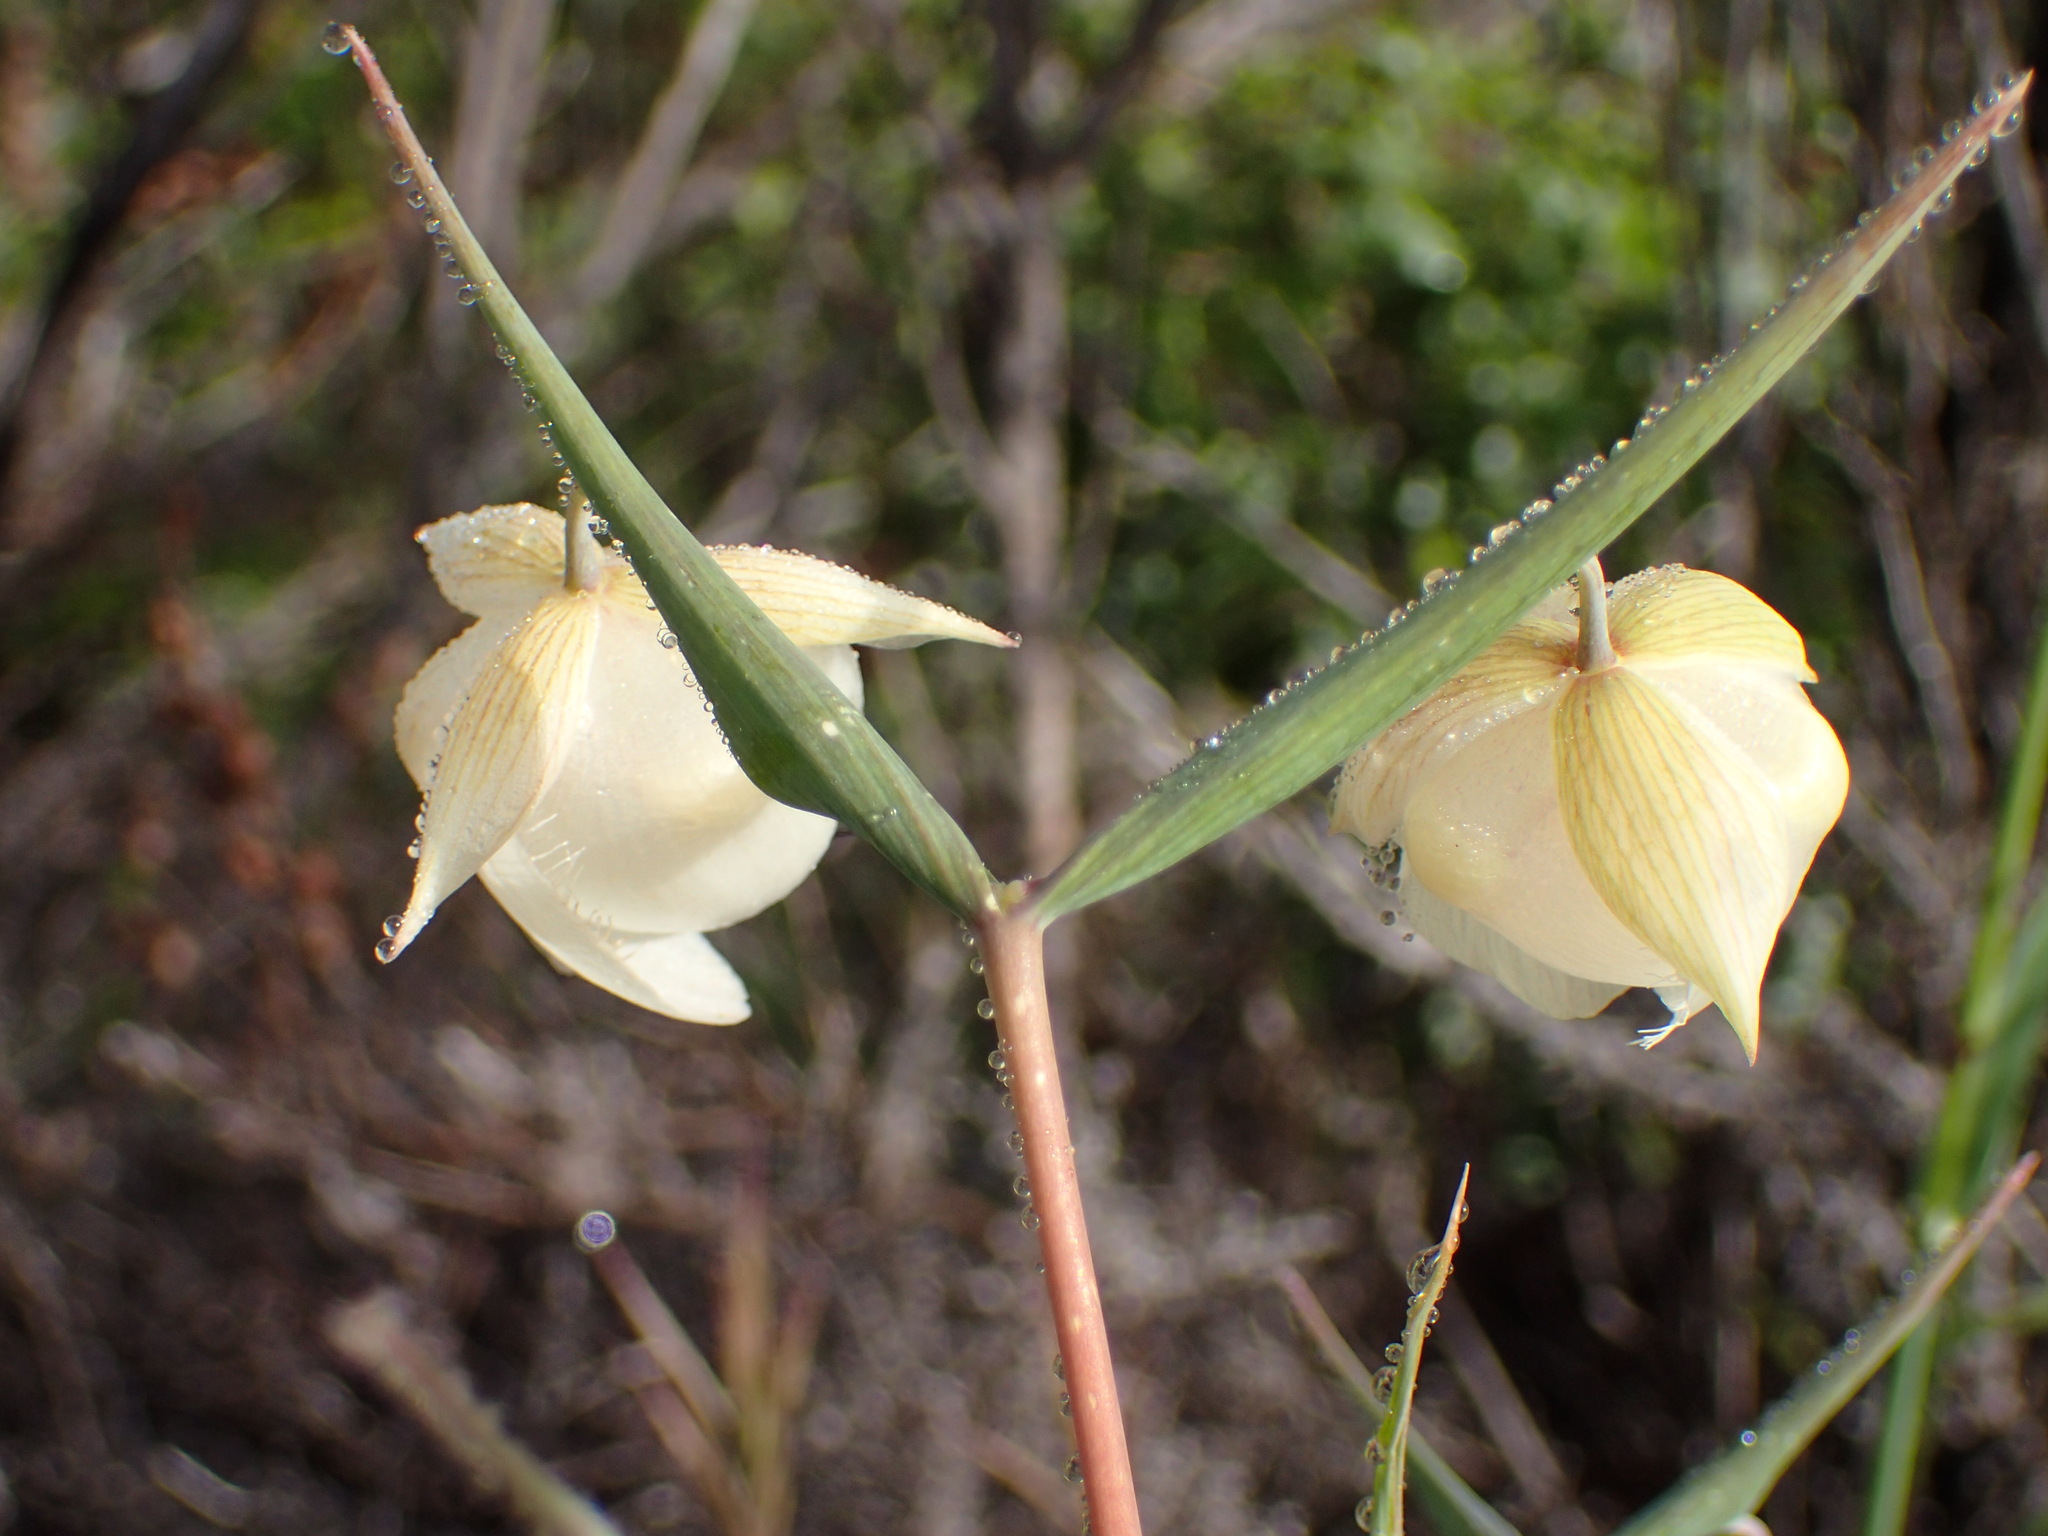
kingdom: Plantae
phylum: Tracheophyta
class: Liliopsida
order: Liliales
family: Liliaceae
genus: Calochortus
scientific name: Calochortus albus
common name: Fairy-lantern
